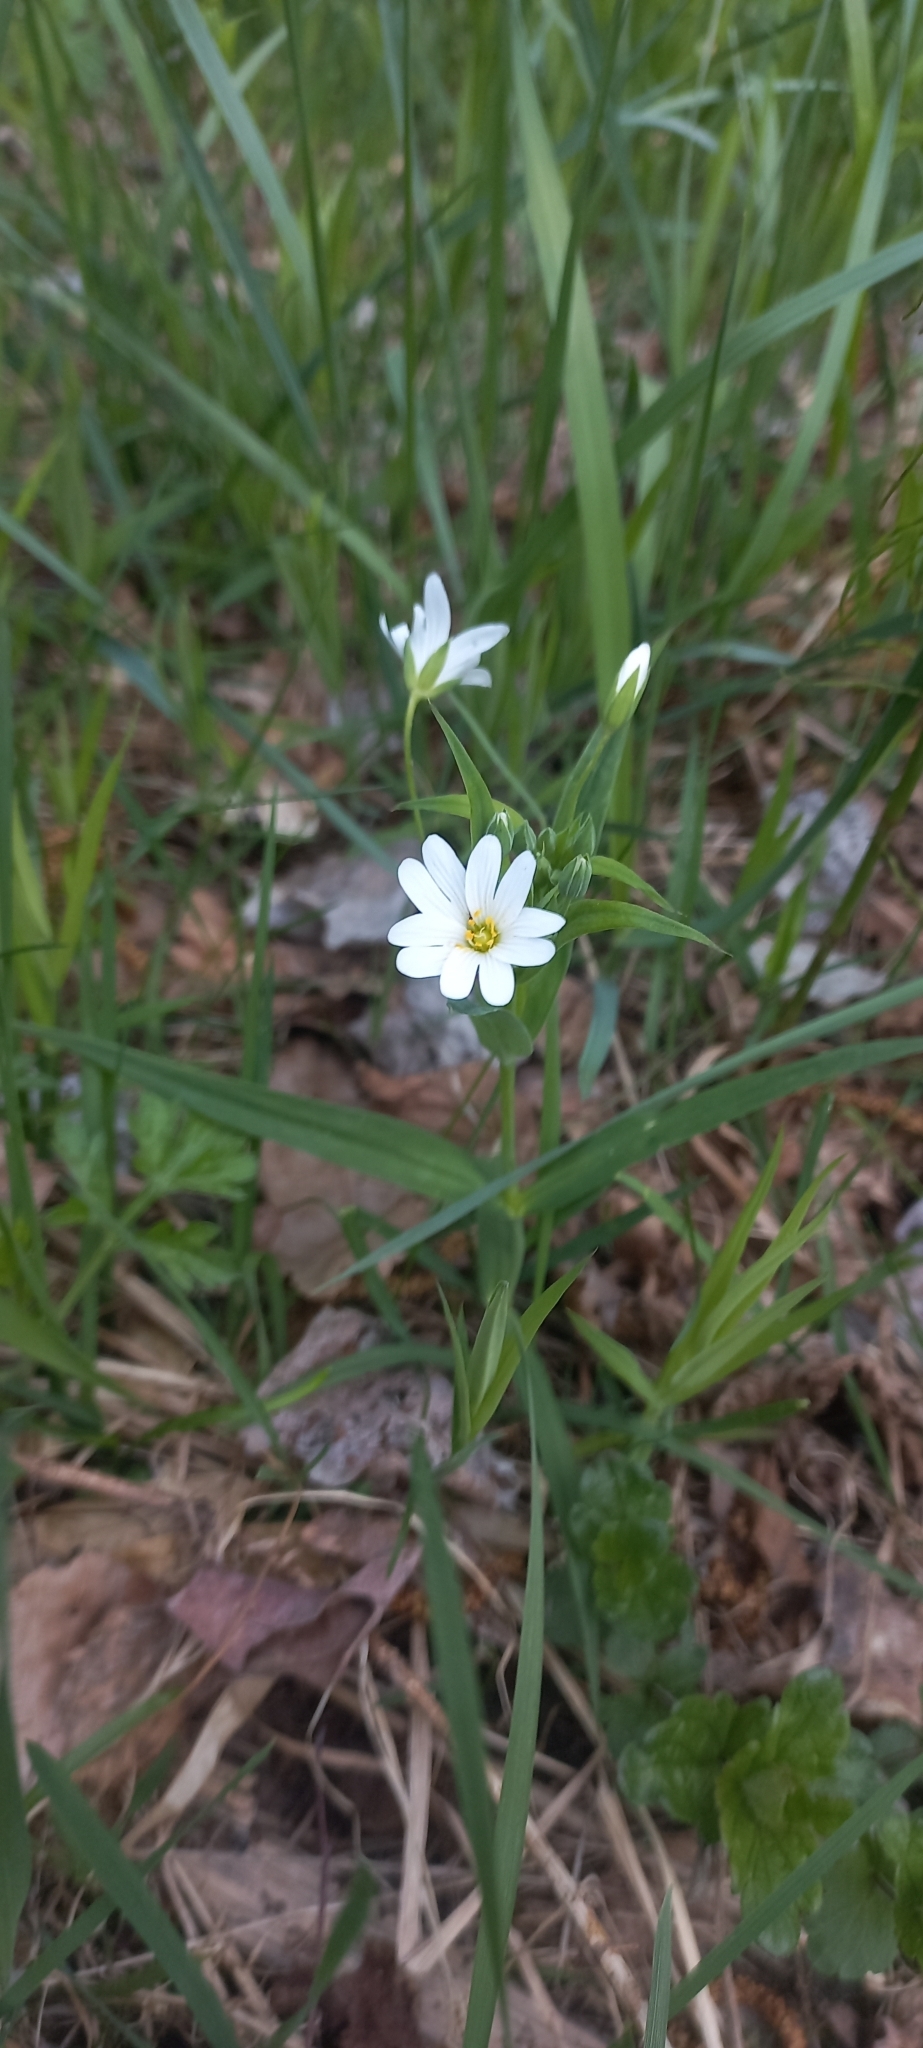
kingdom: Plantae
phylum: Tracheophyta
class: Magnoliopsida
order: Caryophyllales
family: Caryophyllaceae
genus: Rabelera
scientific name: Rabelera holostea
